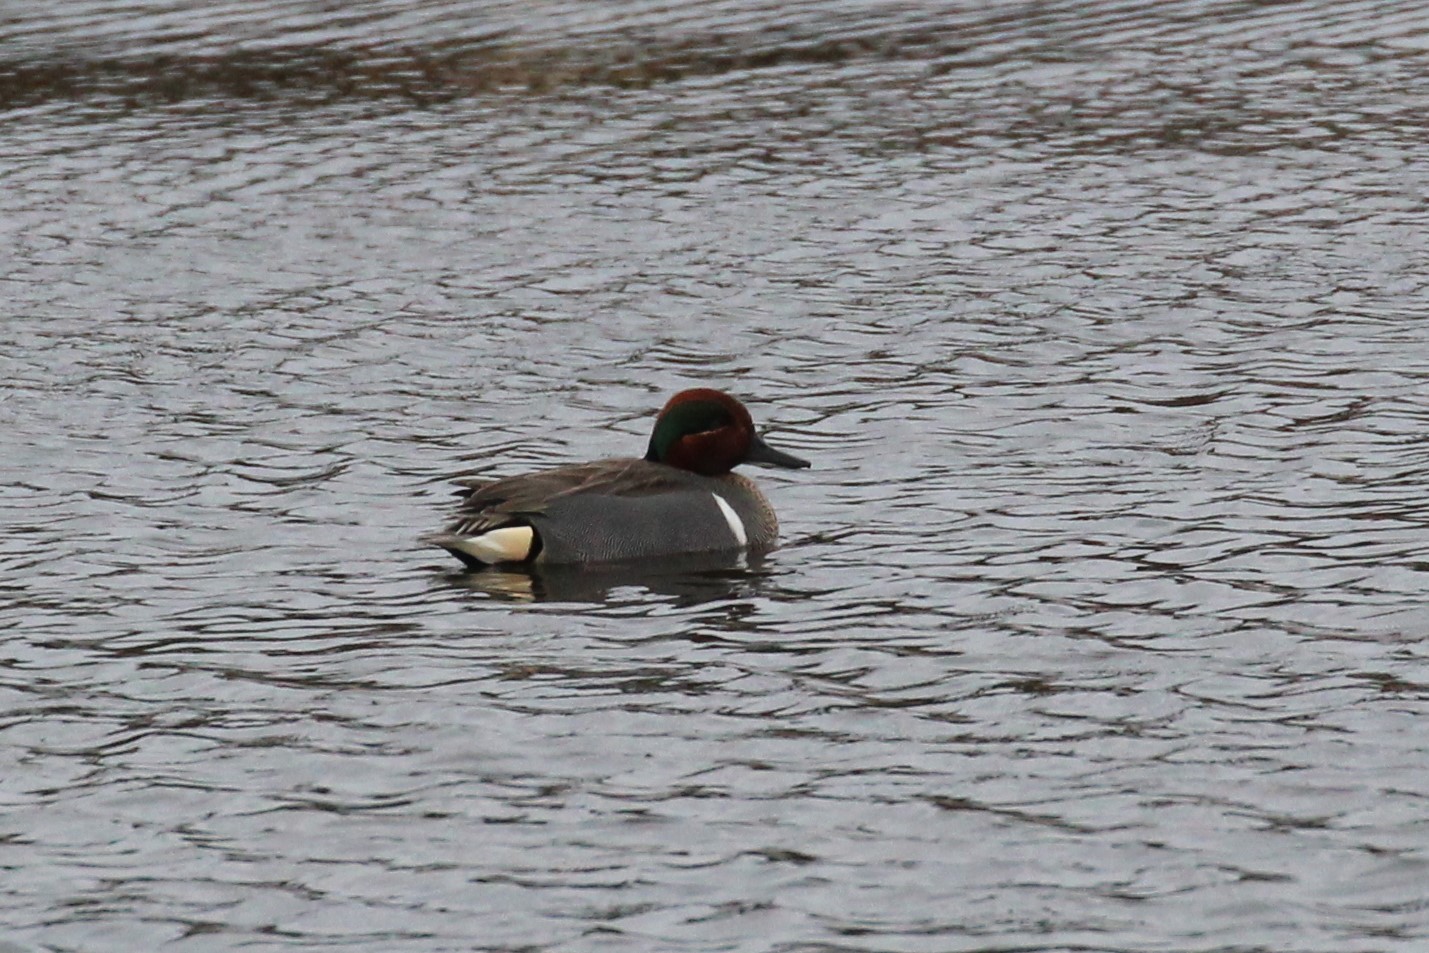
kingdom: Animalia
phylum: Chordata
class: Aves
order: Anseriformes
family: Anatidae
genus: Anas
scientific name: Anas crecca
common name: Eurasian teal
